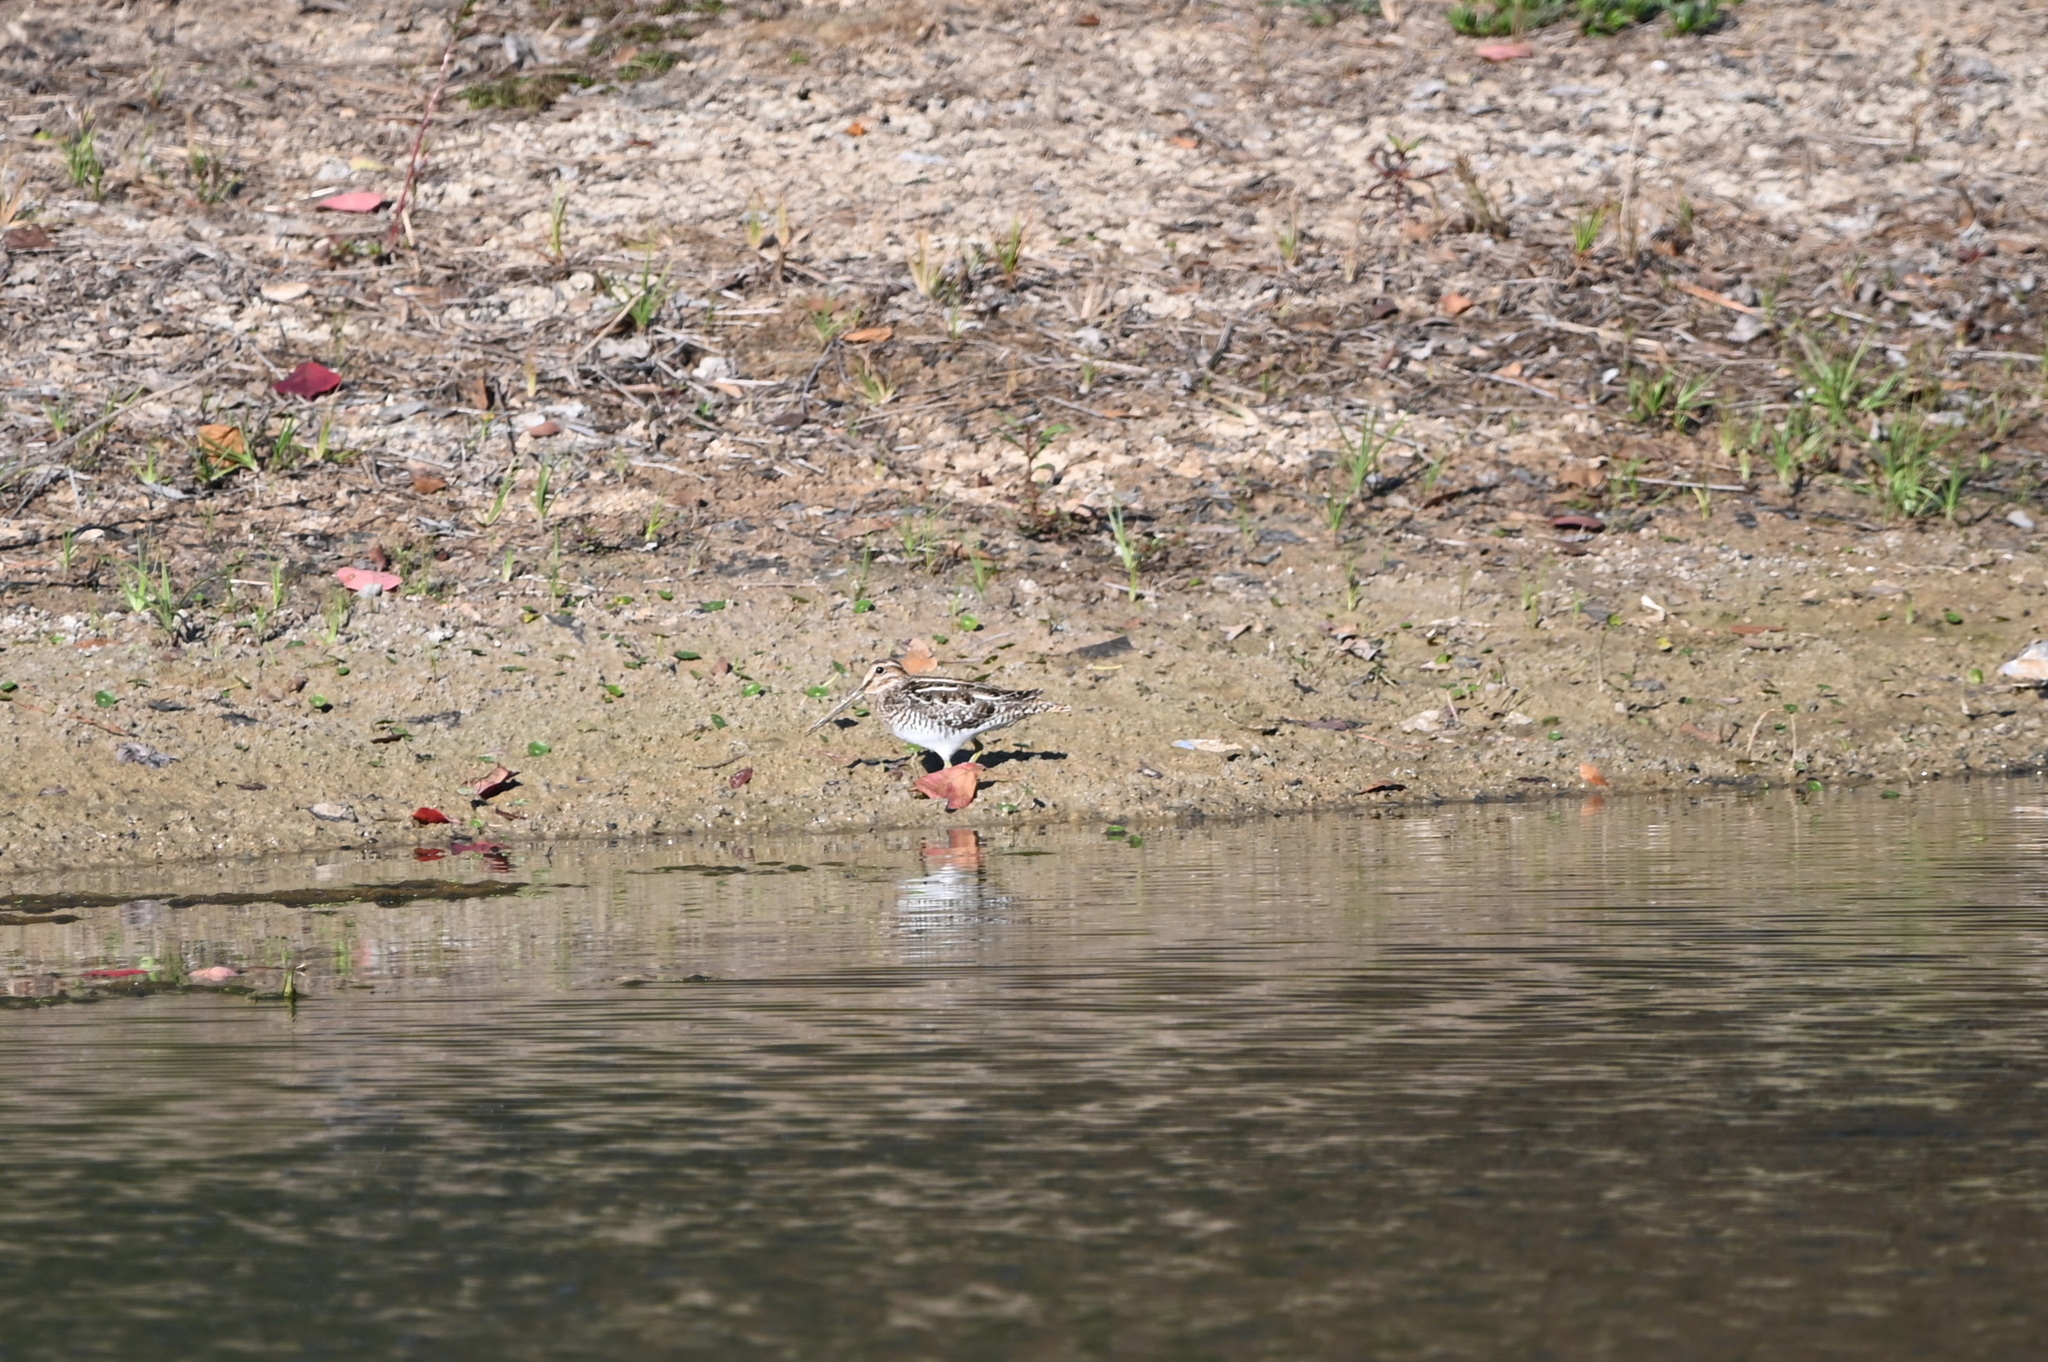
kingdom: Animalia
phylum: Chordata
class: Aves
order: Charadriiformes
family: Scolopacidae
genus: Gallinago
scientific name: Gallinago delicata
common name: Wilson's snipe
